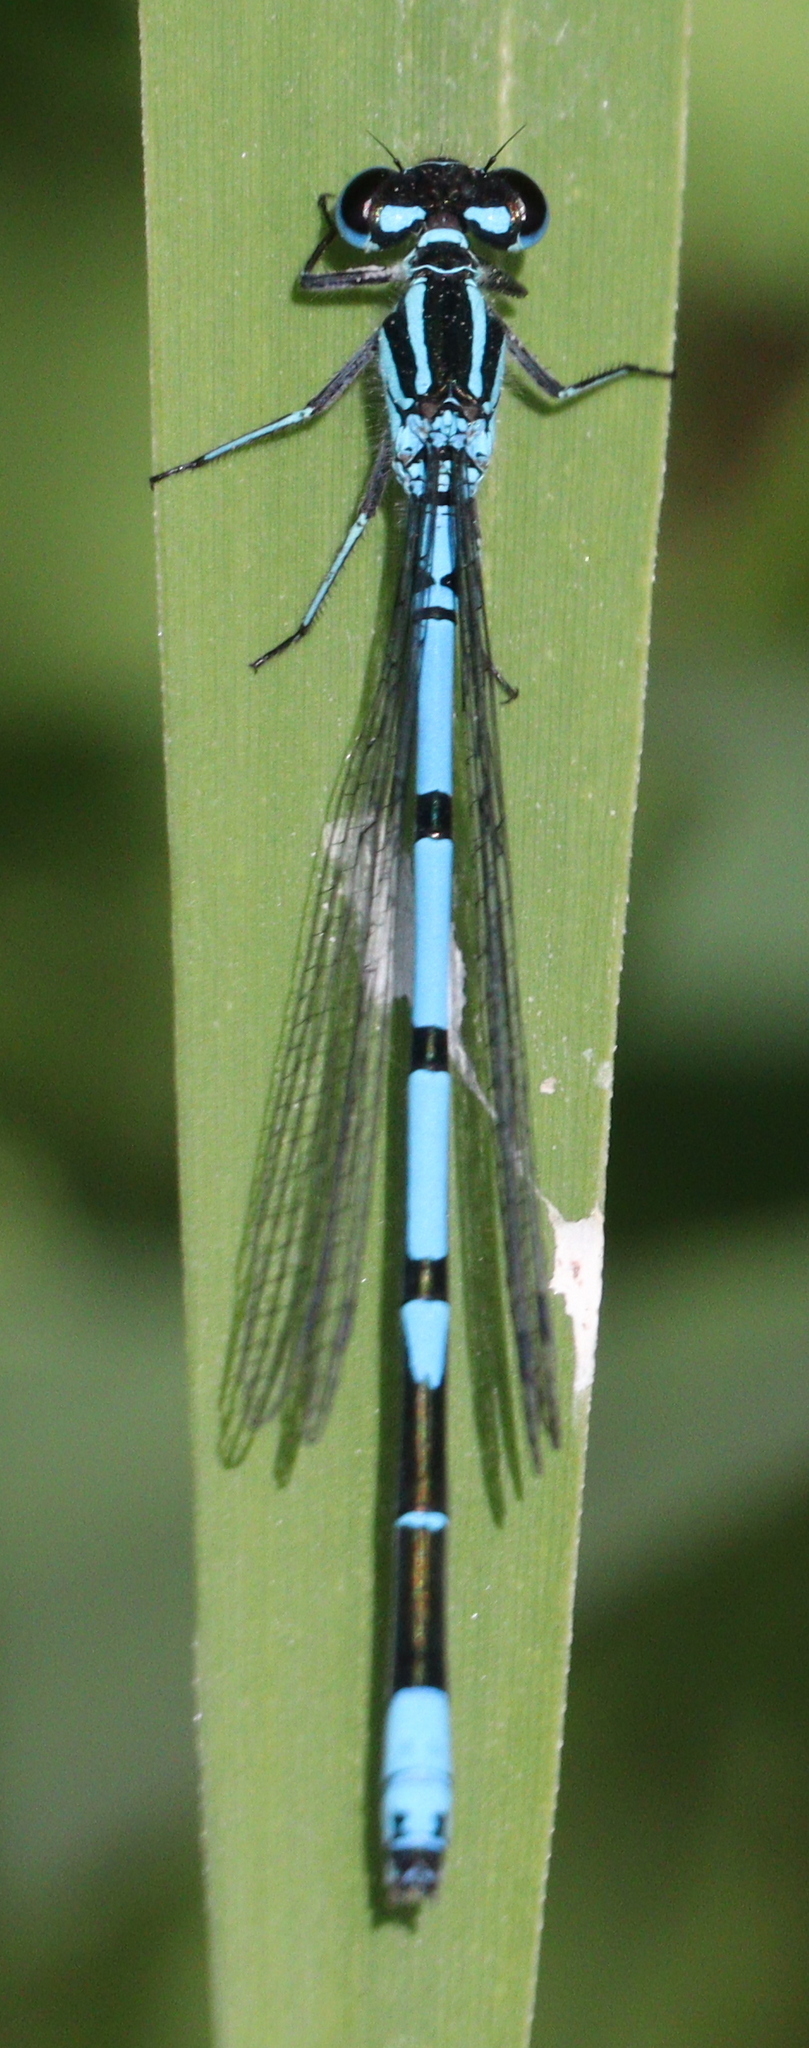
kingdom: Animalia
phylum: Arthropoda
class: Insecta
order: Odonata
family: Coenagrionidae
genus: Coenagrion
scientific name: Coenagrion puella
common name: Azure damselfly
